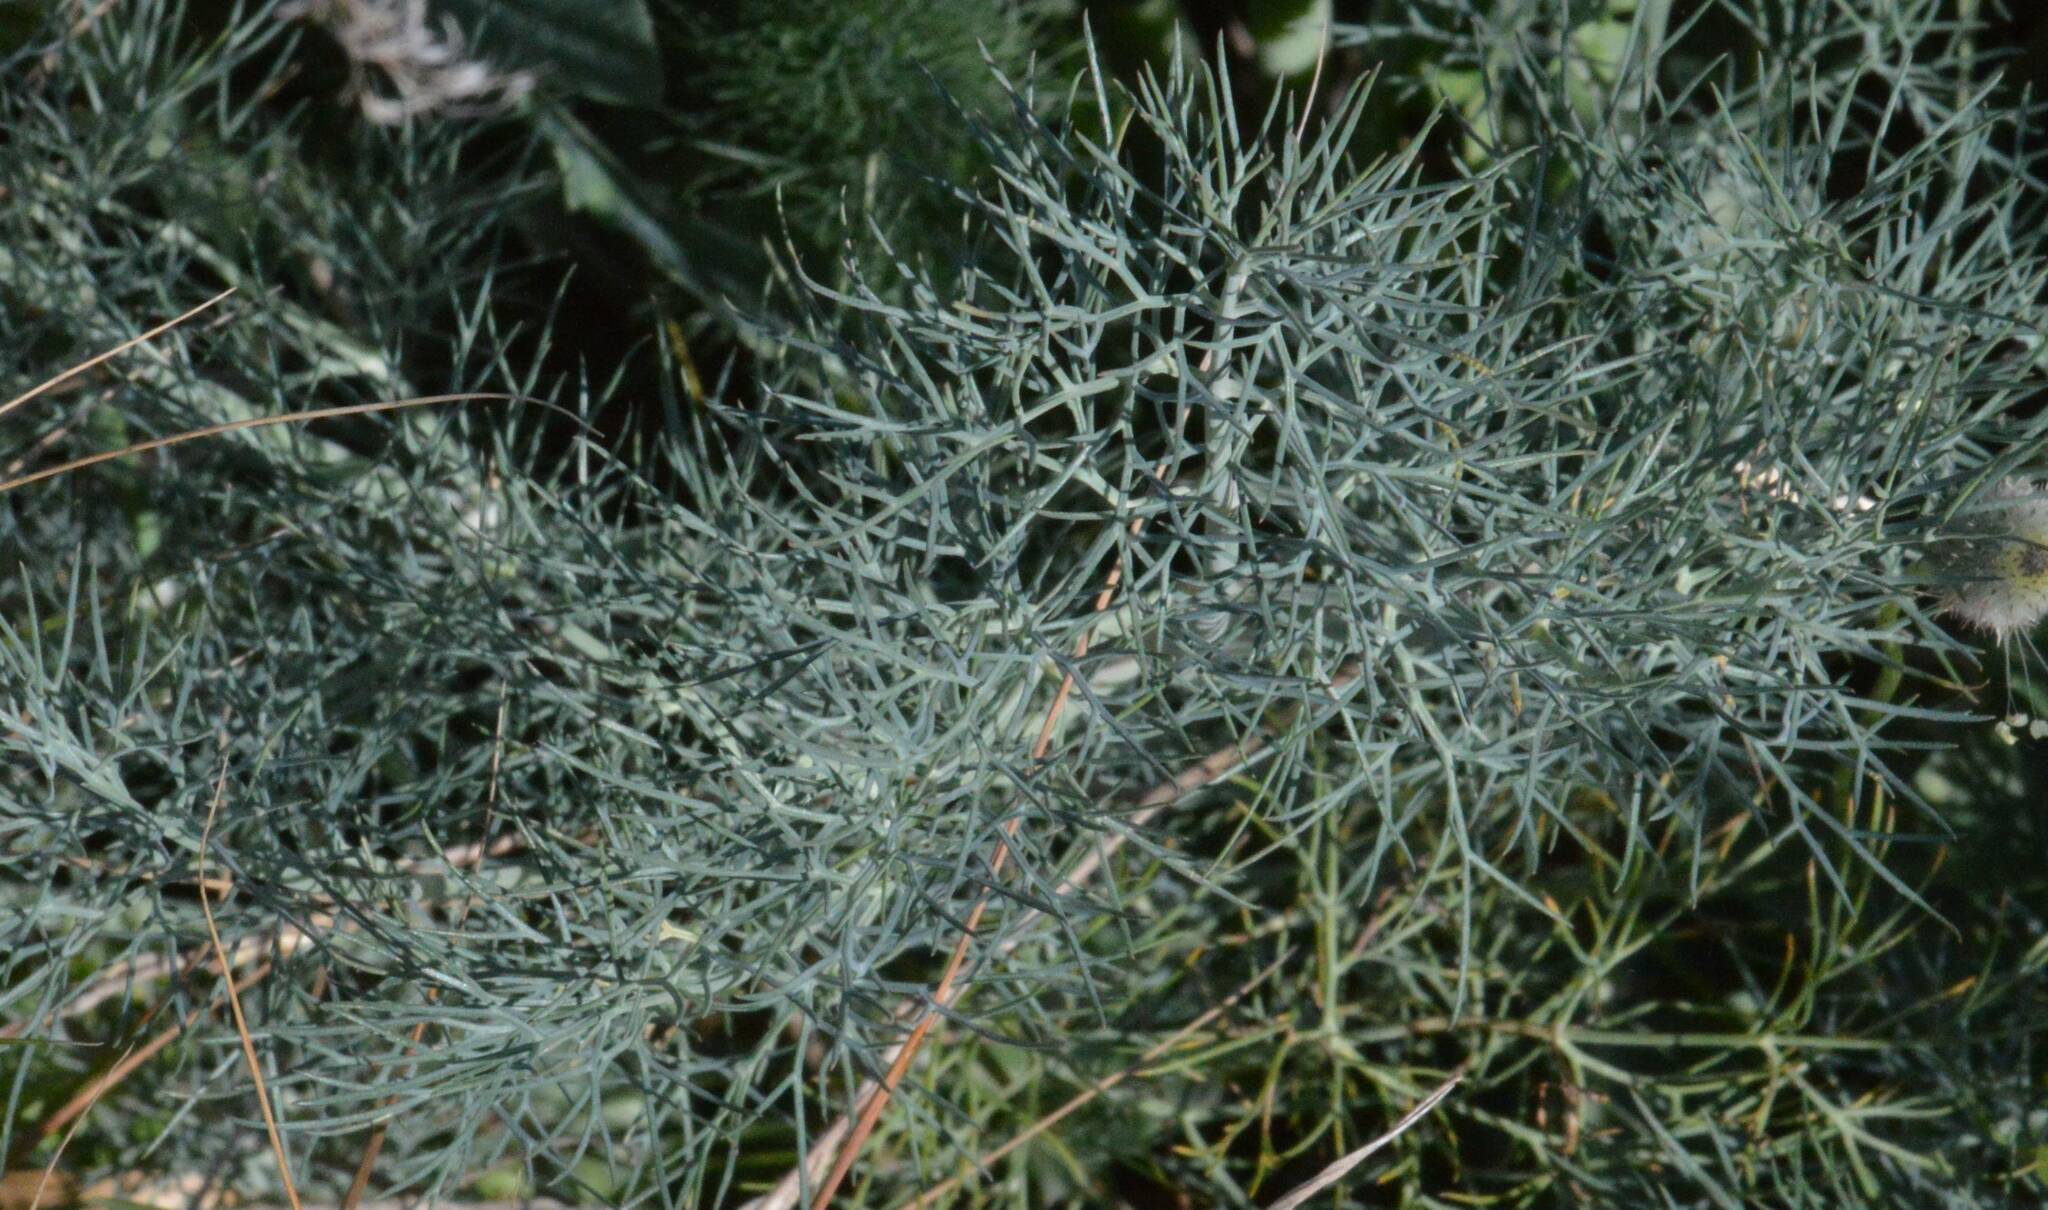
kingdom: Plantae
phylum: Tracheophyta
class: Magnoliopsida
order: Apiales
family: Apiaceae
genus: Foeniculum
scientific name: Foeniculum vulgare
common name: Fennel
